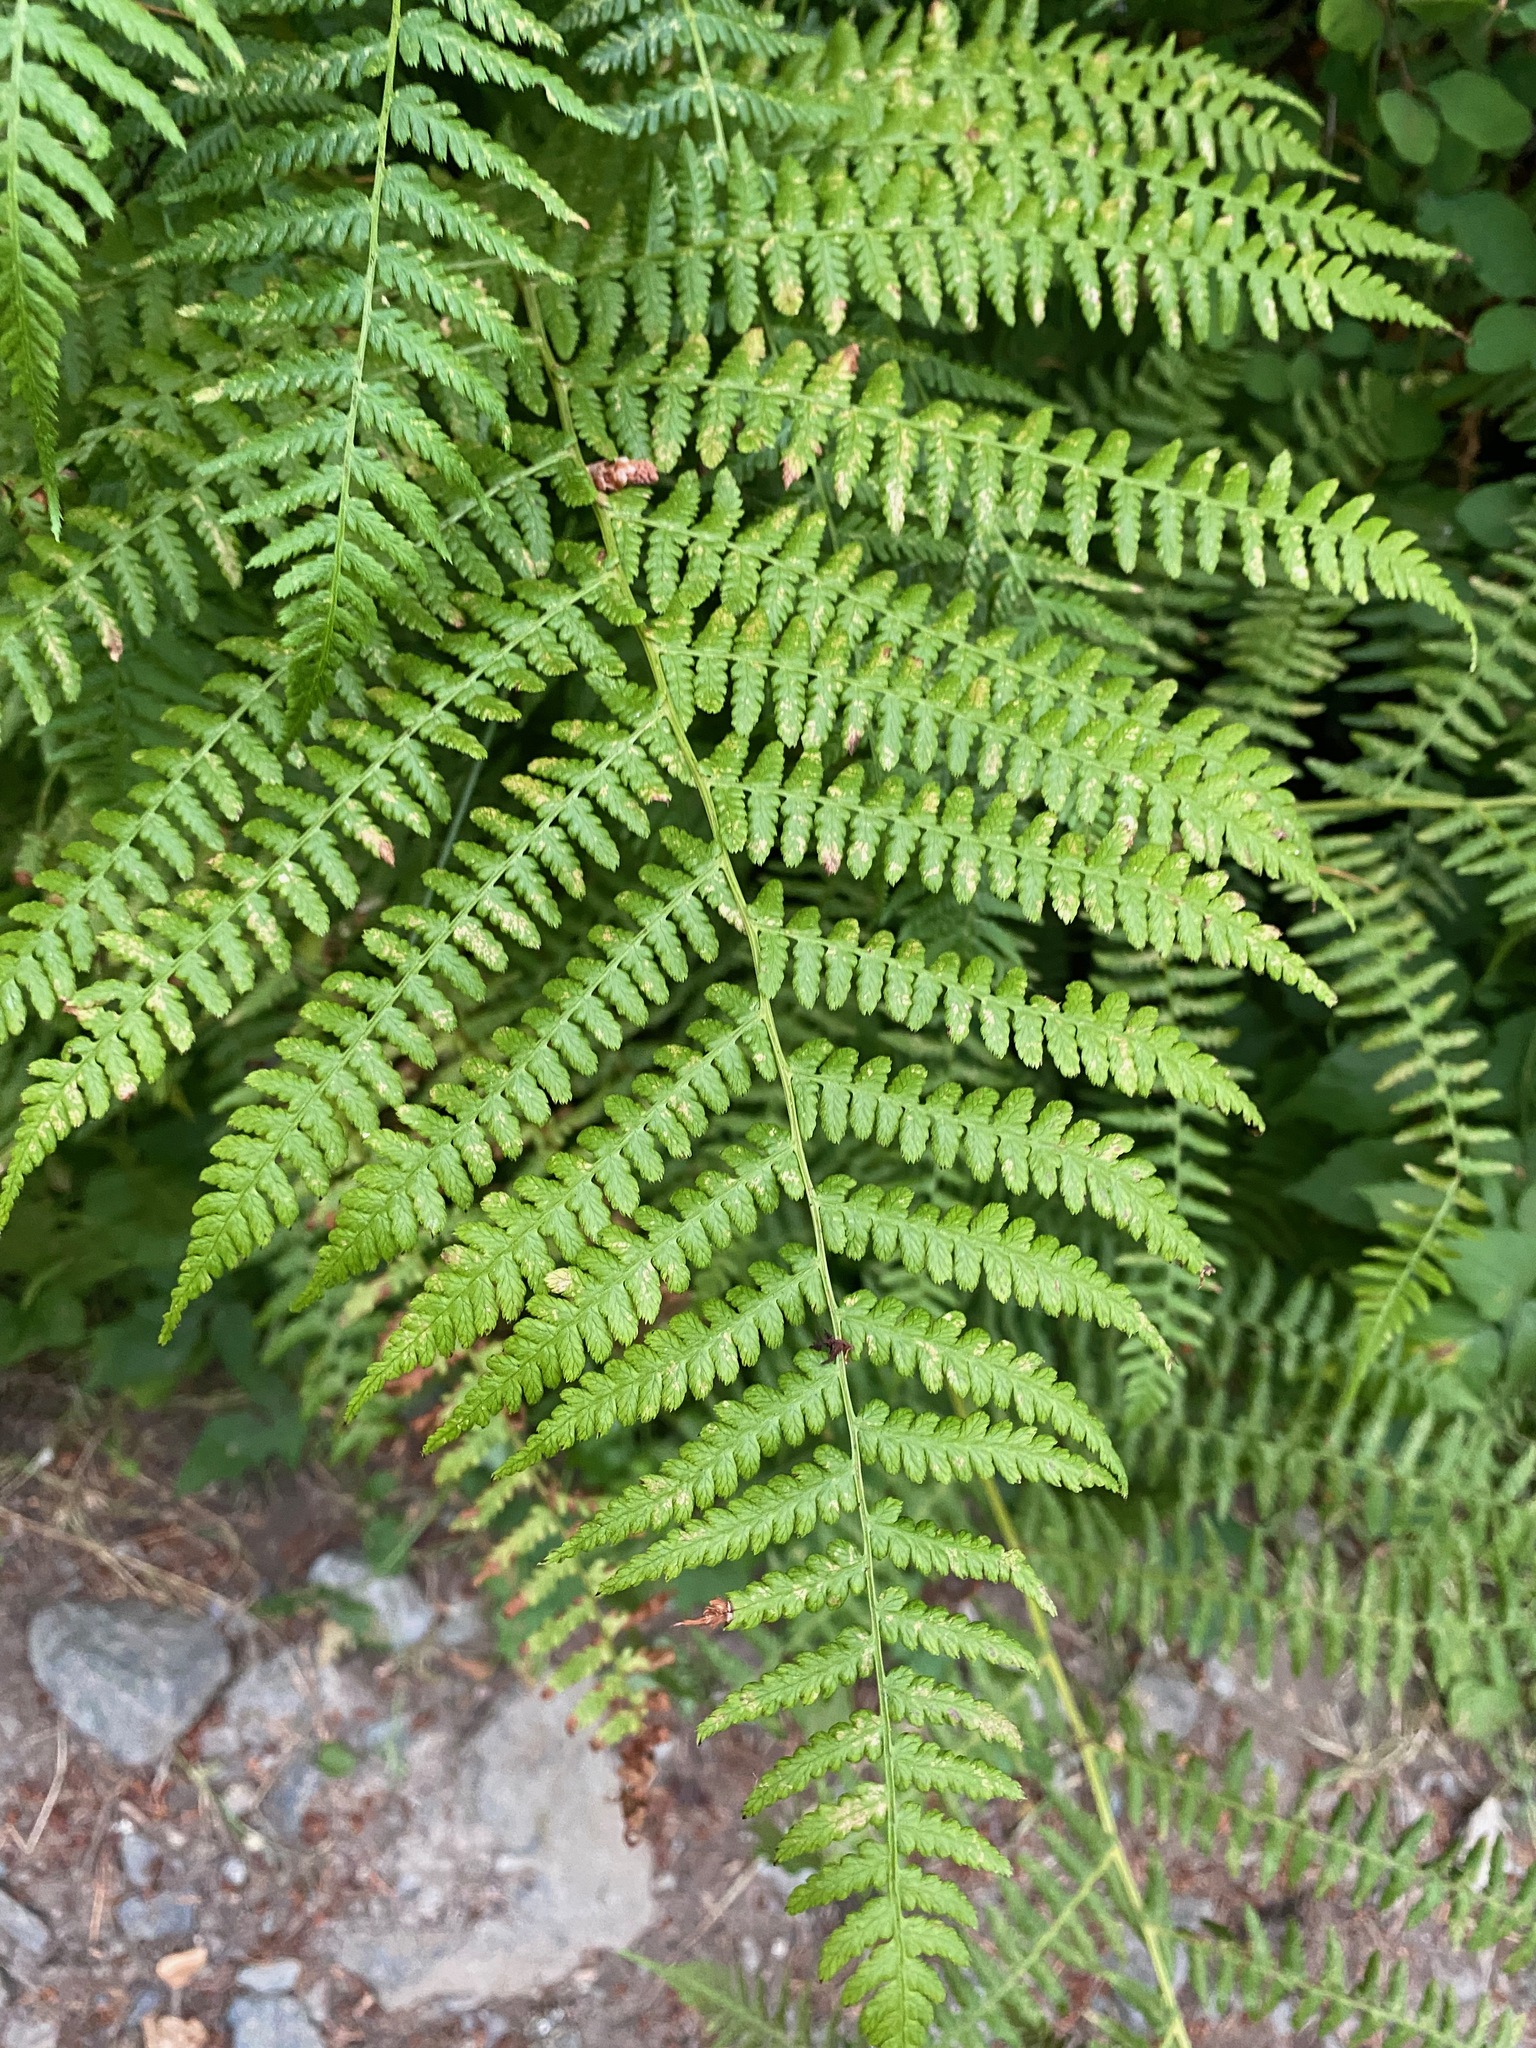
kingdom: Plantae
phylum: Tracheophyta
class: Polypodiopsida
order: Polypodiales
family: Athyriaceae
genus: Athyrium
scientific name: Athyrium filix-femina
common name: Lady fern
